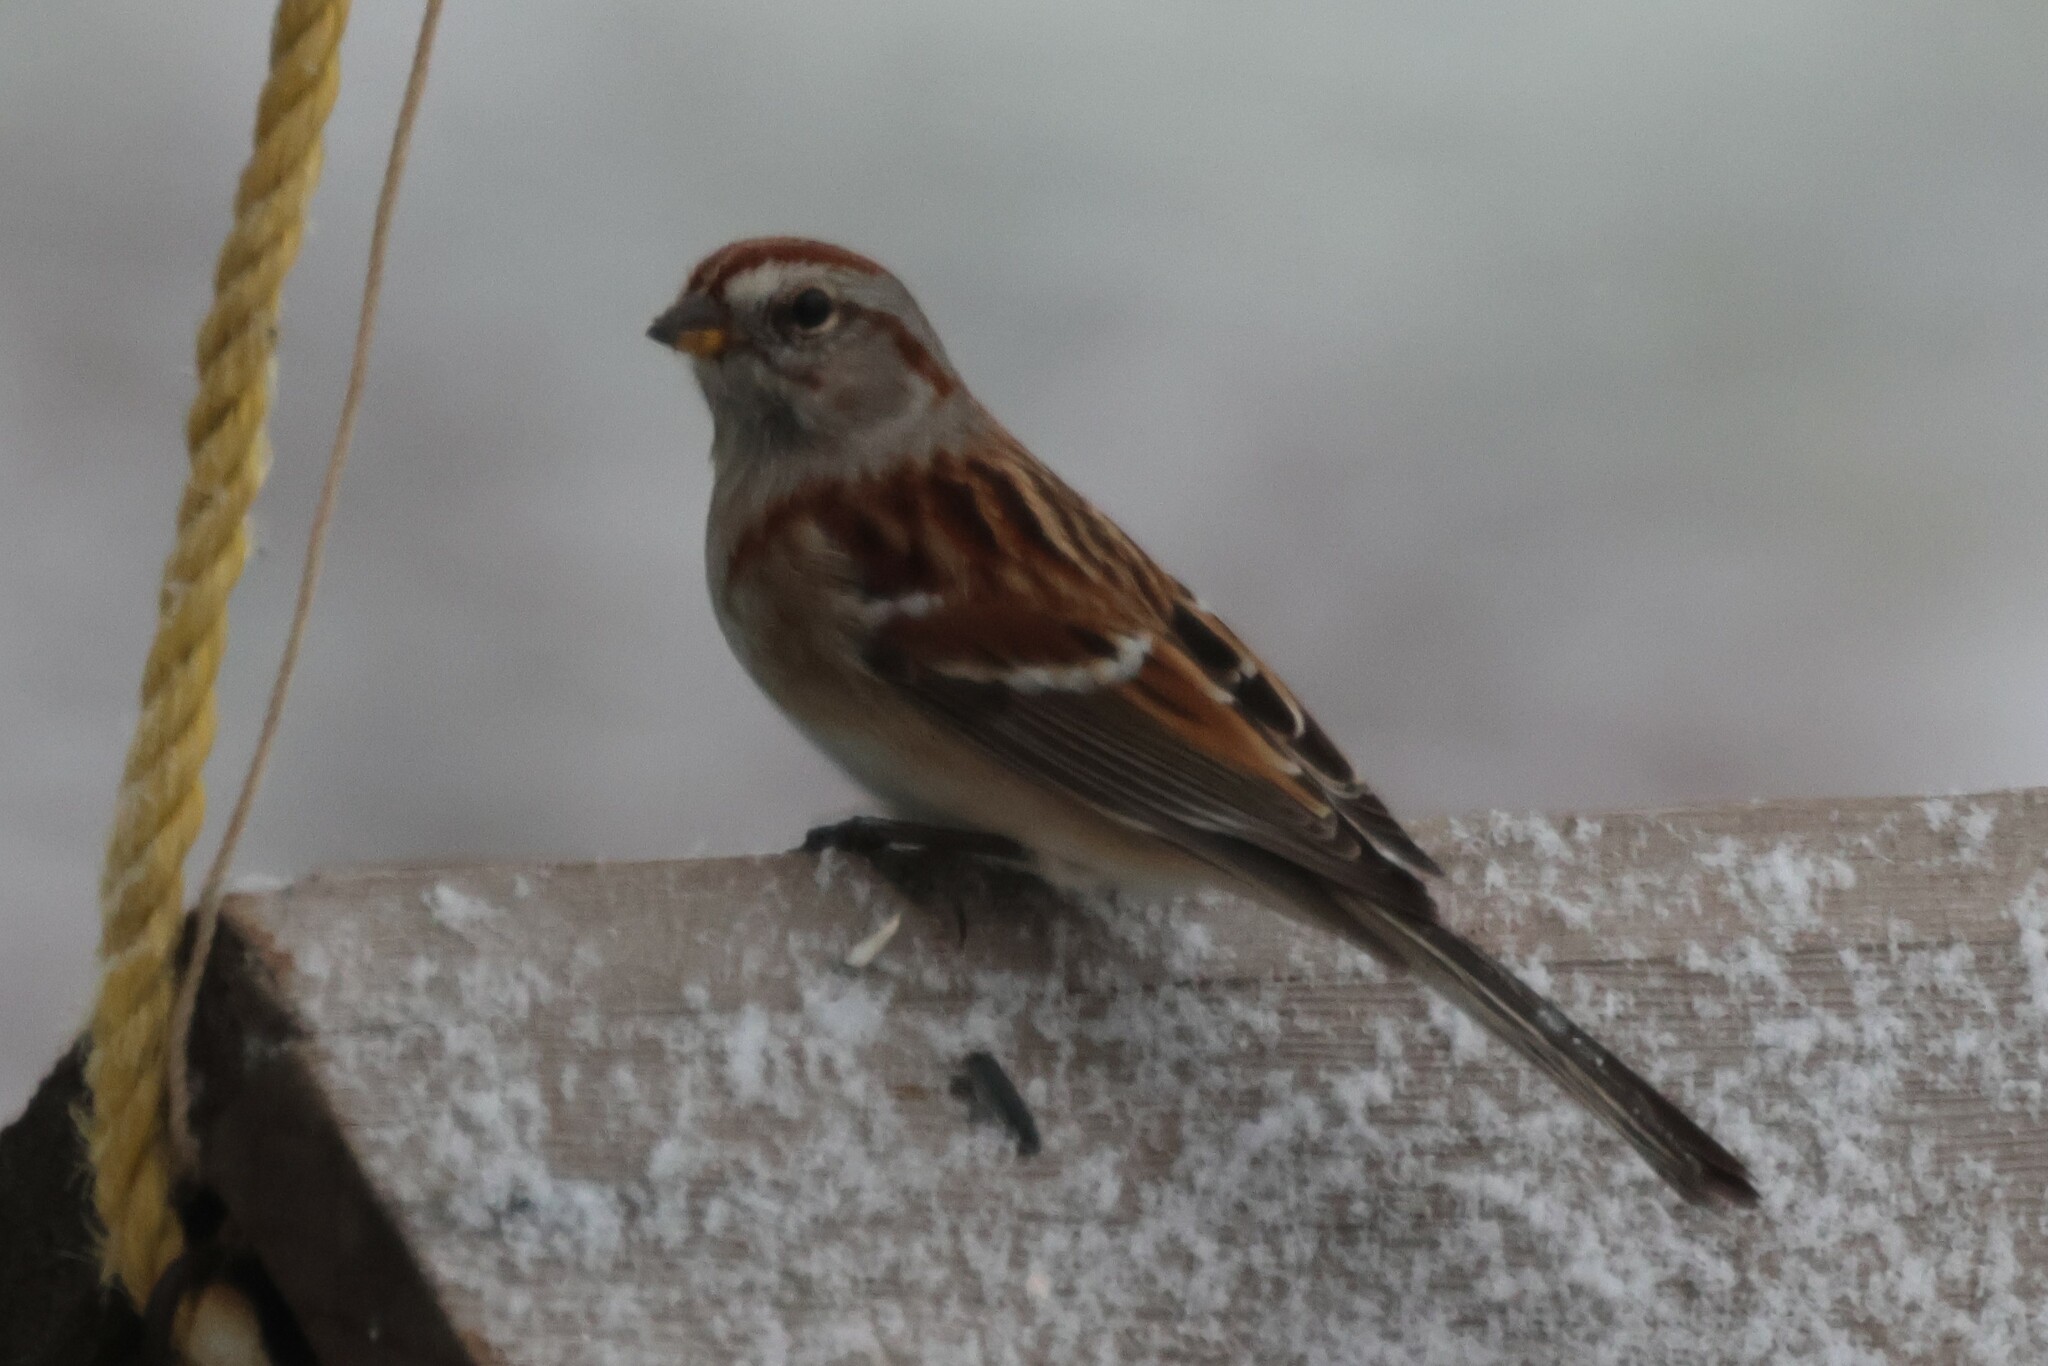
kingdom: Animalia
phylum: Chordata
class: Aves
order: Passeriformes
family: Passerellidae
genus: Spizelloides
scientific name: Spizelloides arborea
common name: American tree sparrow
